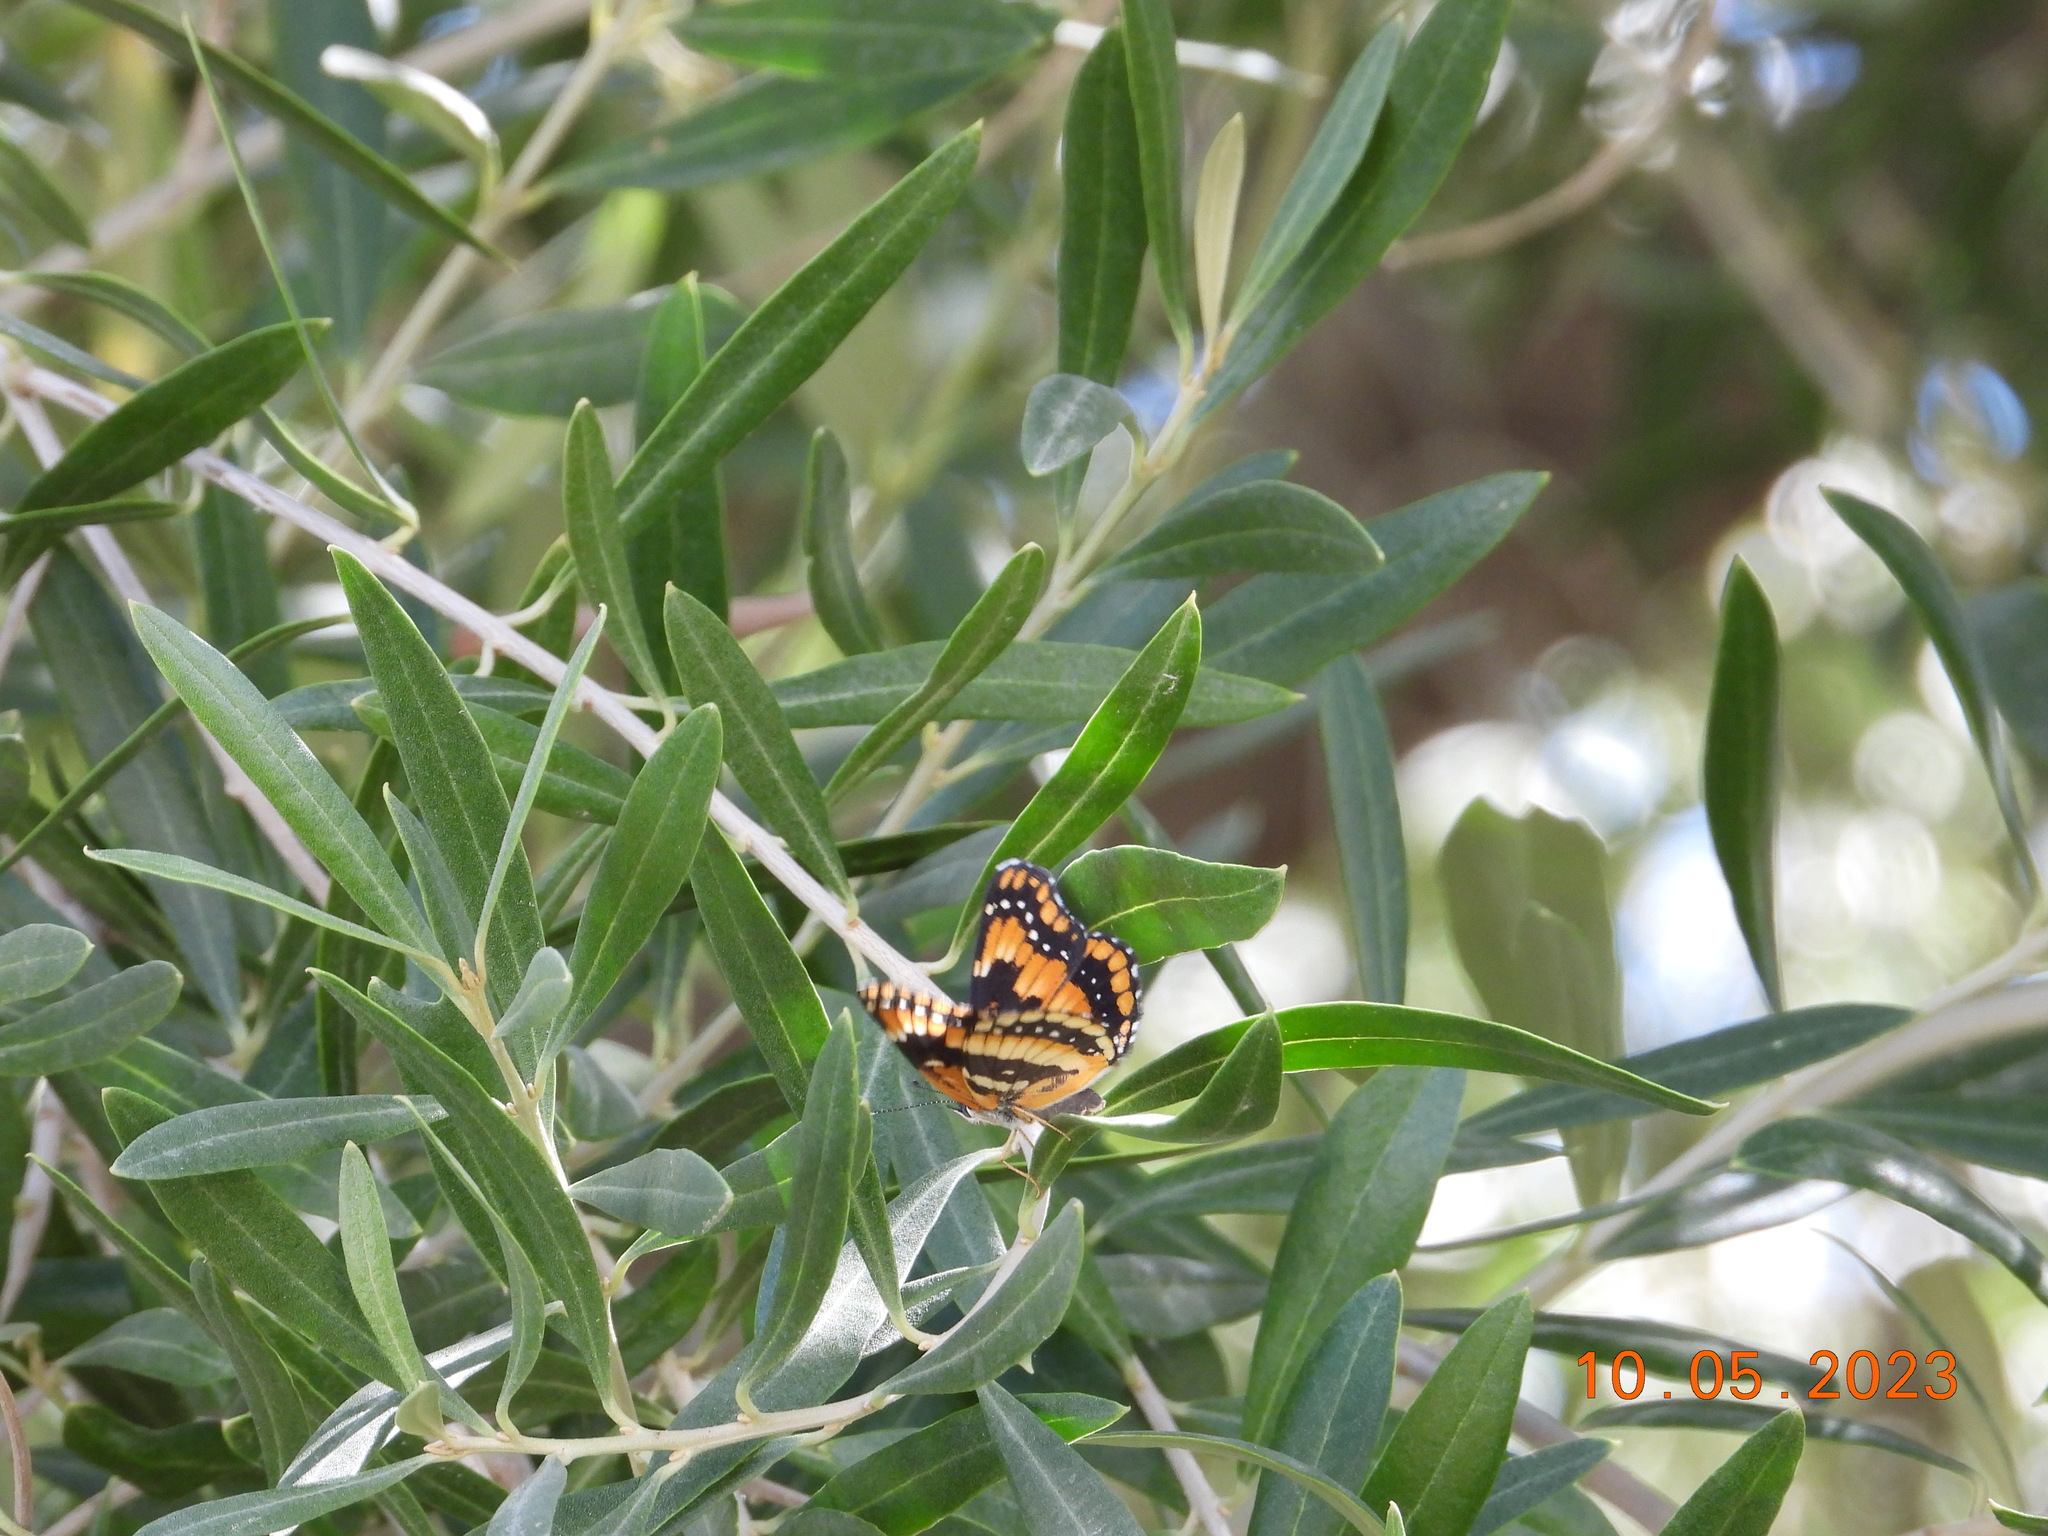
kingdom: Animalia
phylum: Arthropoda
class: Insecta
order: Lepidoptera
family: Nymphalidae
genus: Chlosyne
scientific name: Chlosyne californica
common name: California patch
